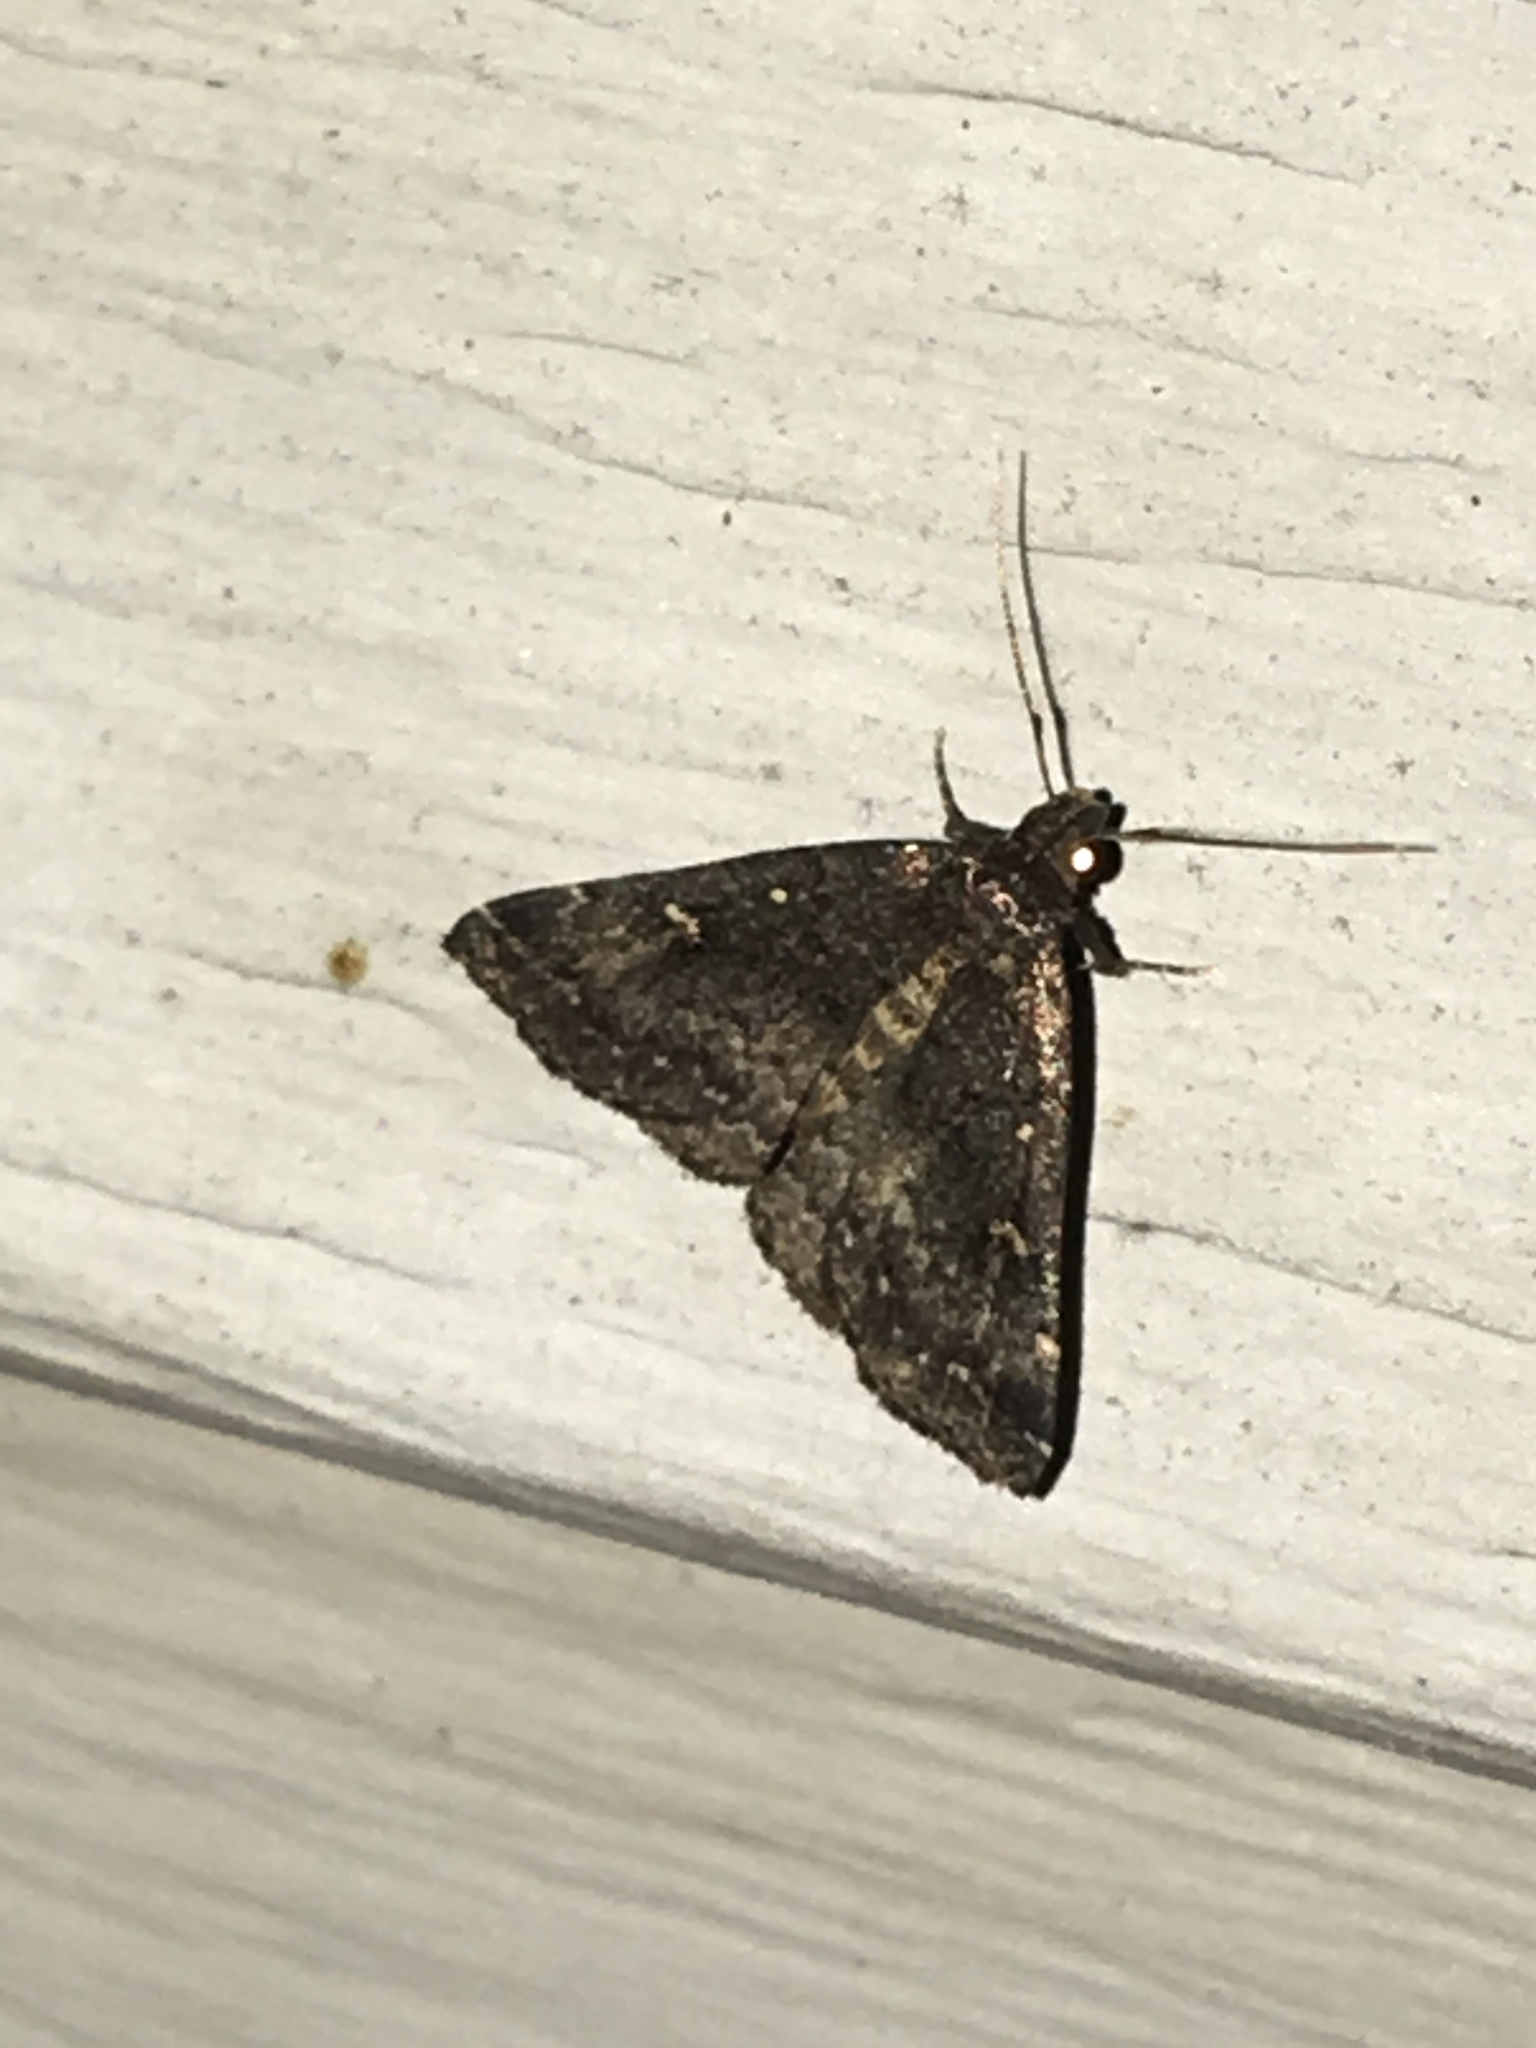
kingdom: Animalia
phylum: Arthropoda
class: Insecta
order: Lepidoptera
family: Erebidae
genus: Tetanolita
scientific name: Tetanolita mynesalis
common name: Smoky tetanolita moth
